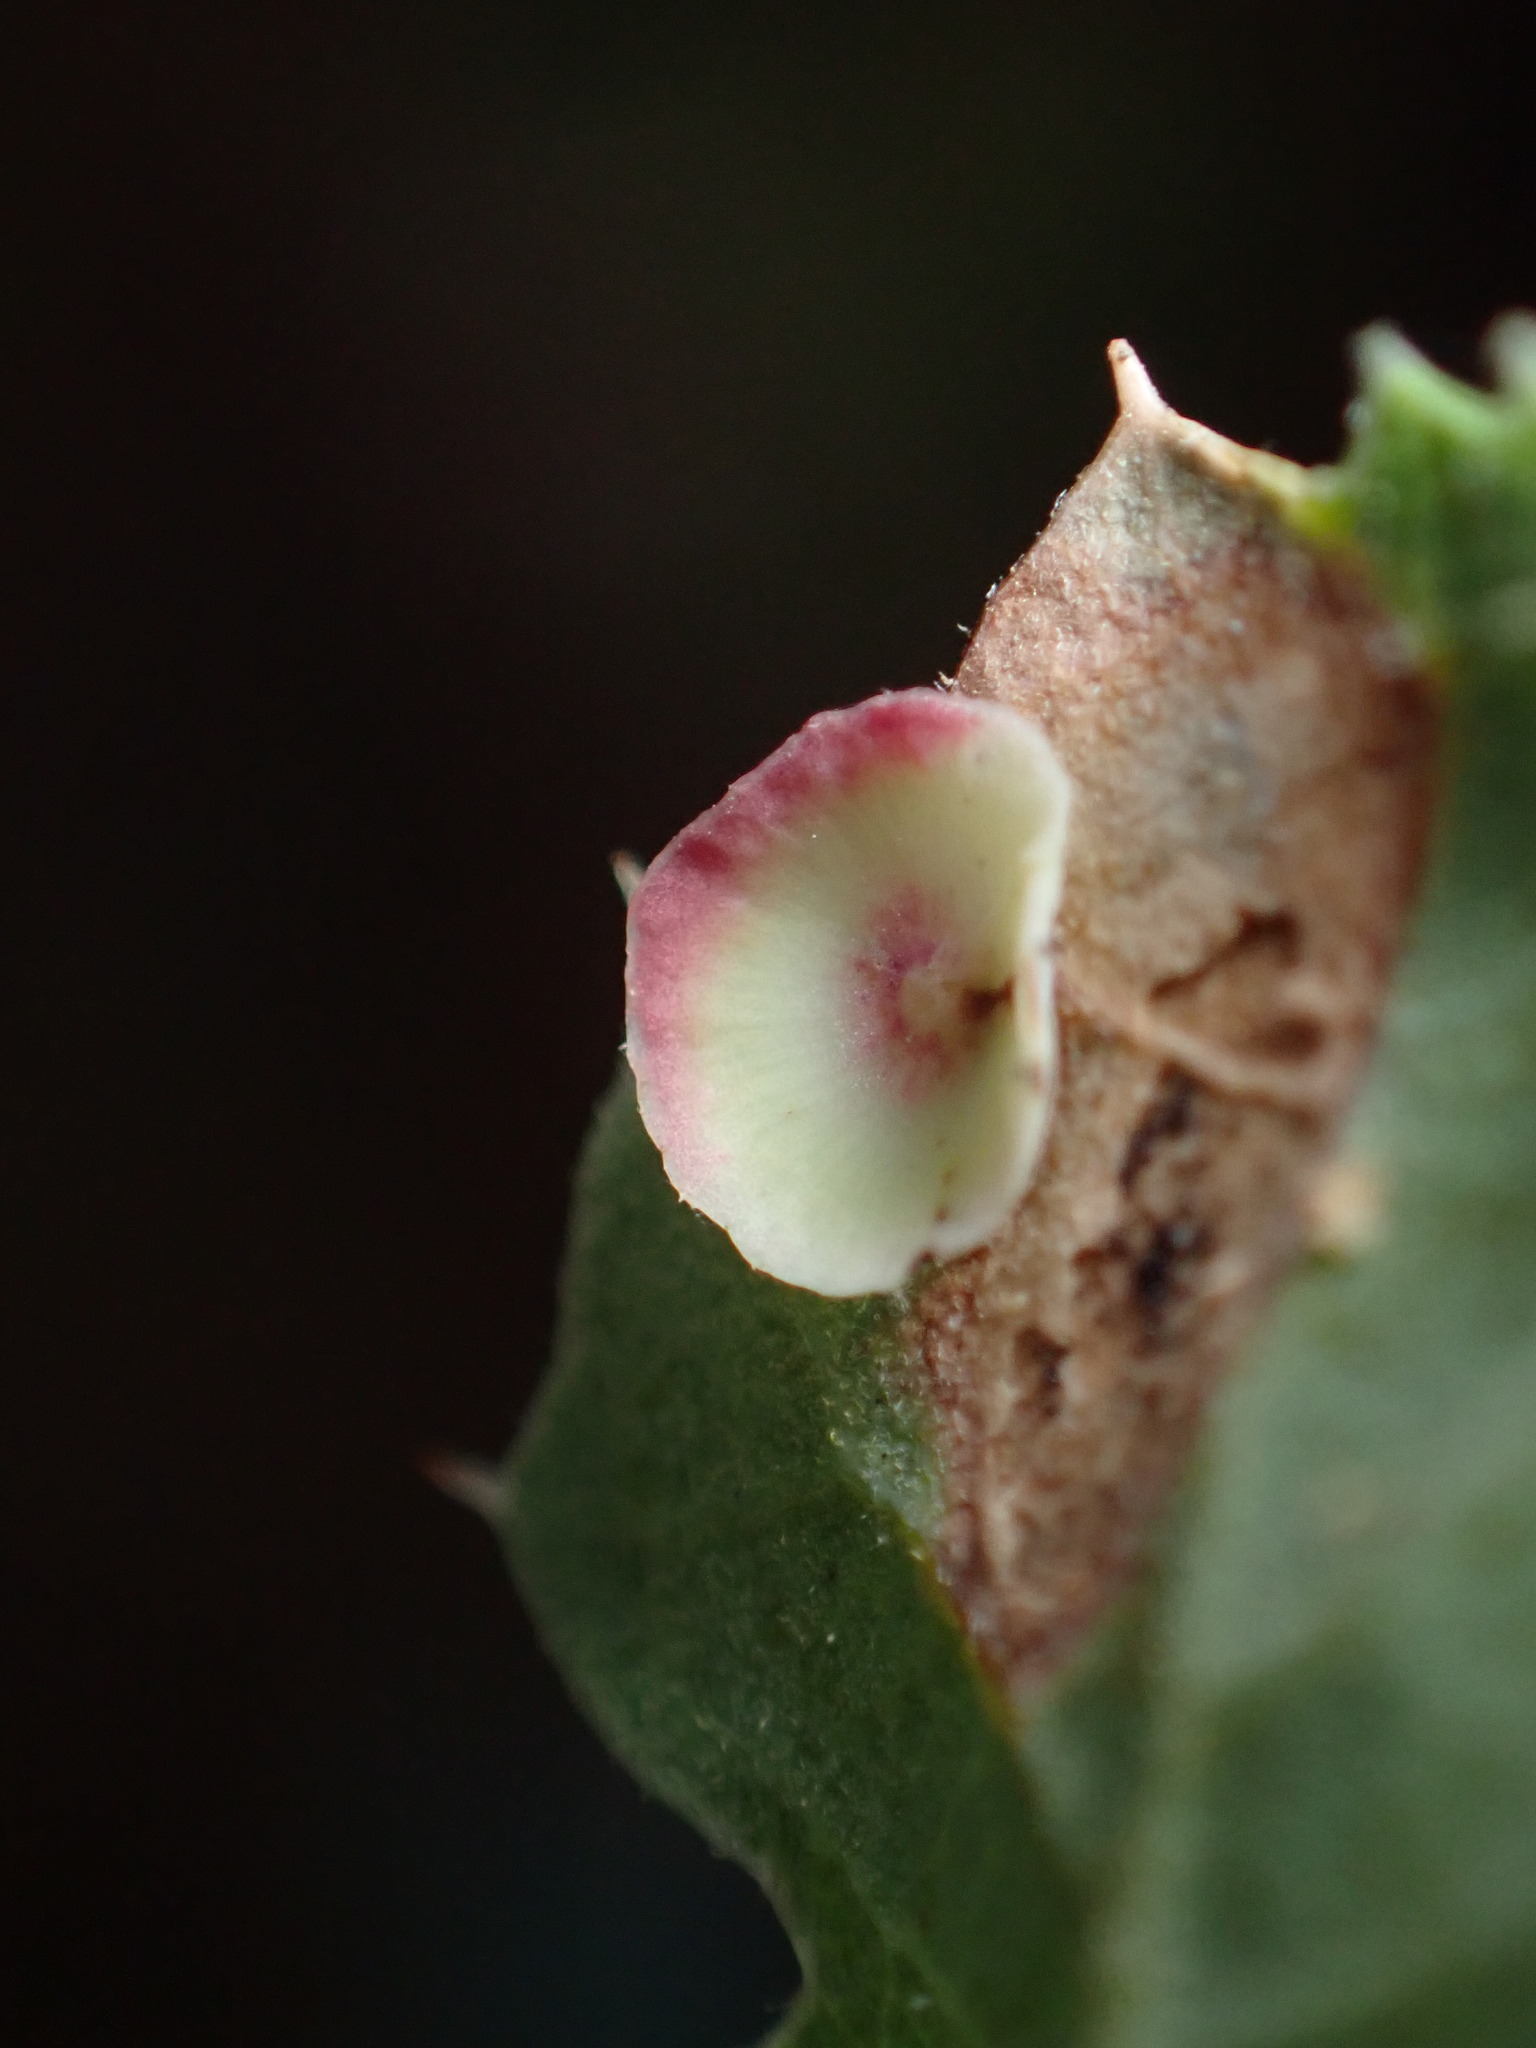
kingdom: Animalia
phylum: Arthropoda
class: Insecta
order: Hymenoptera
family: Cynipidae
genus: Andricus
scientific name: Andricus
